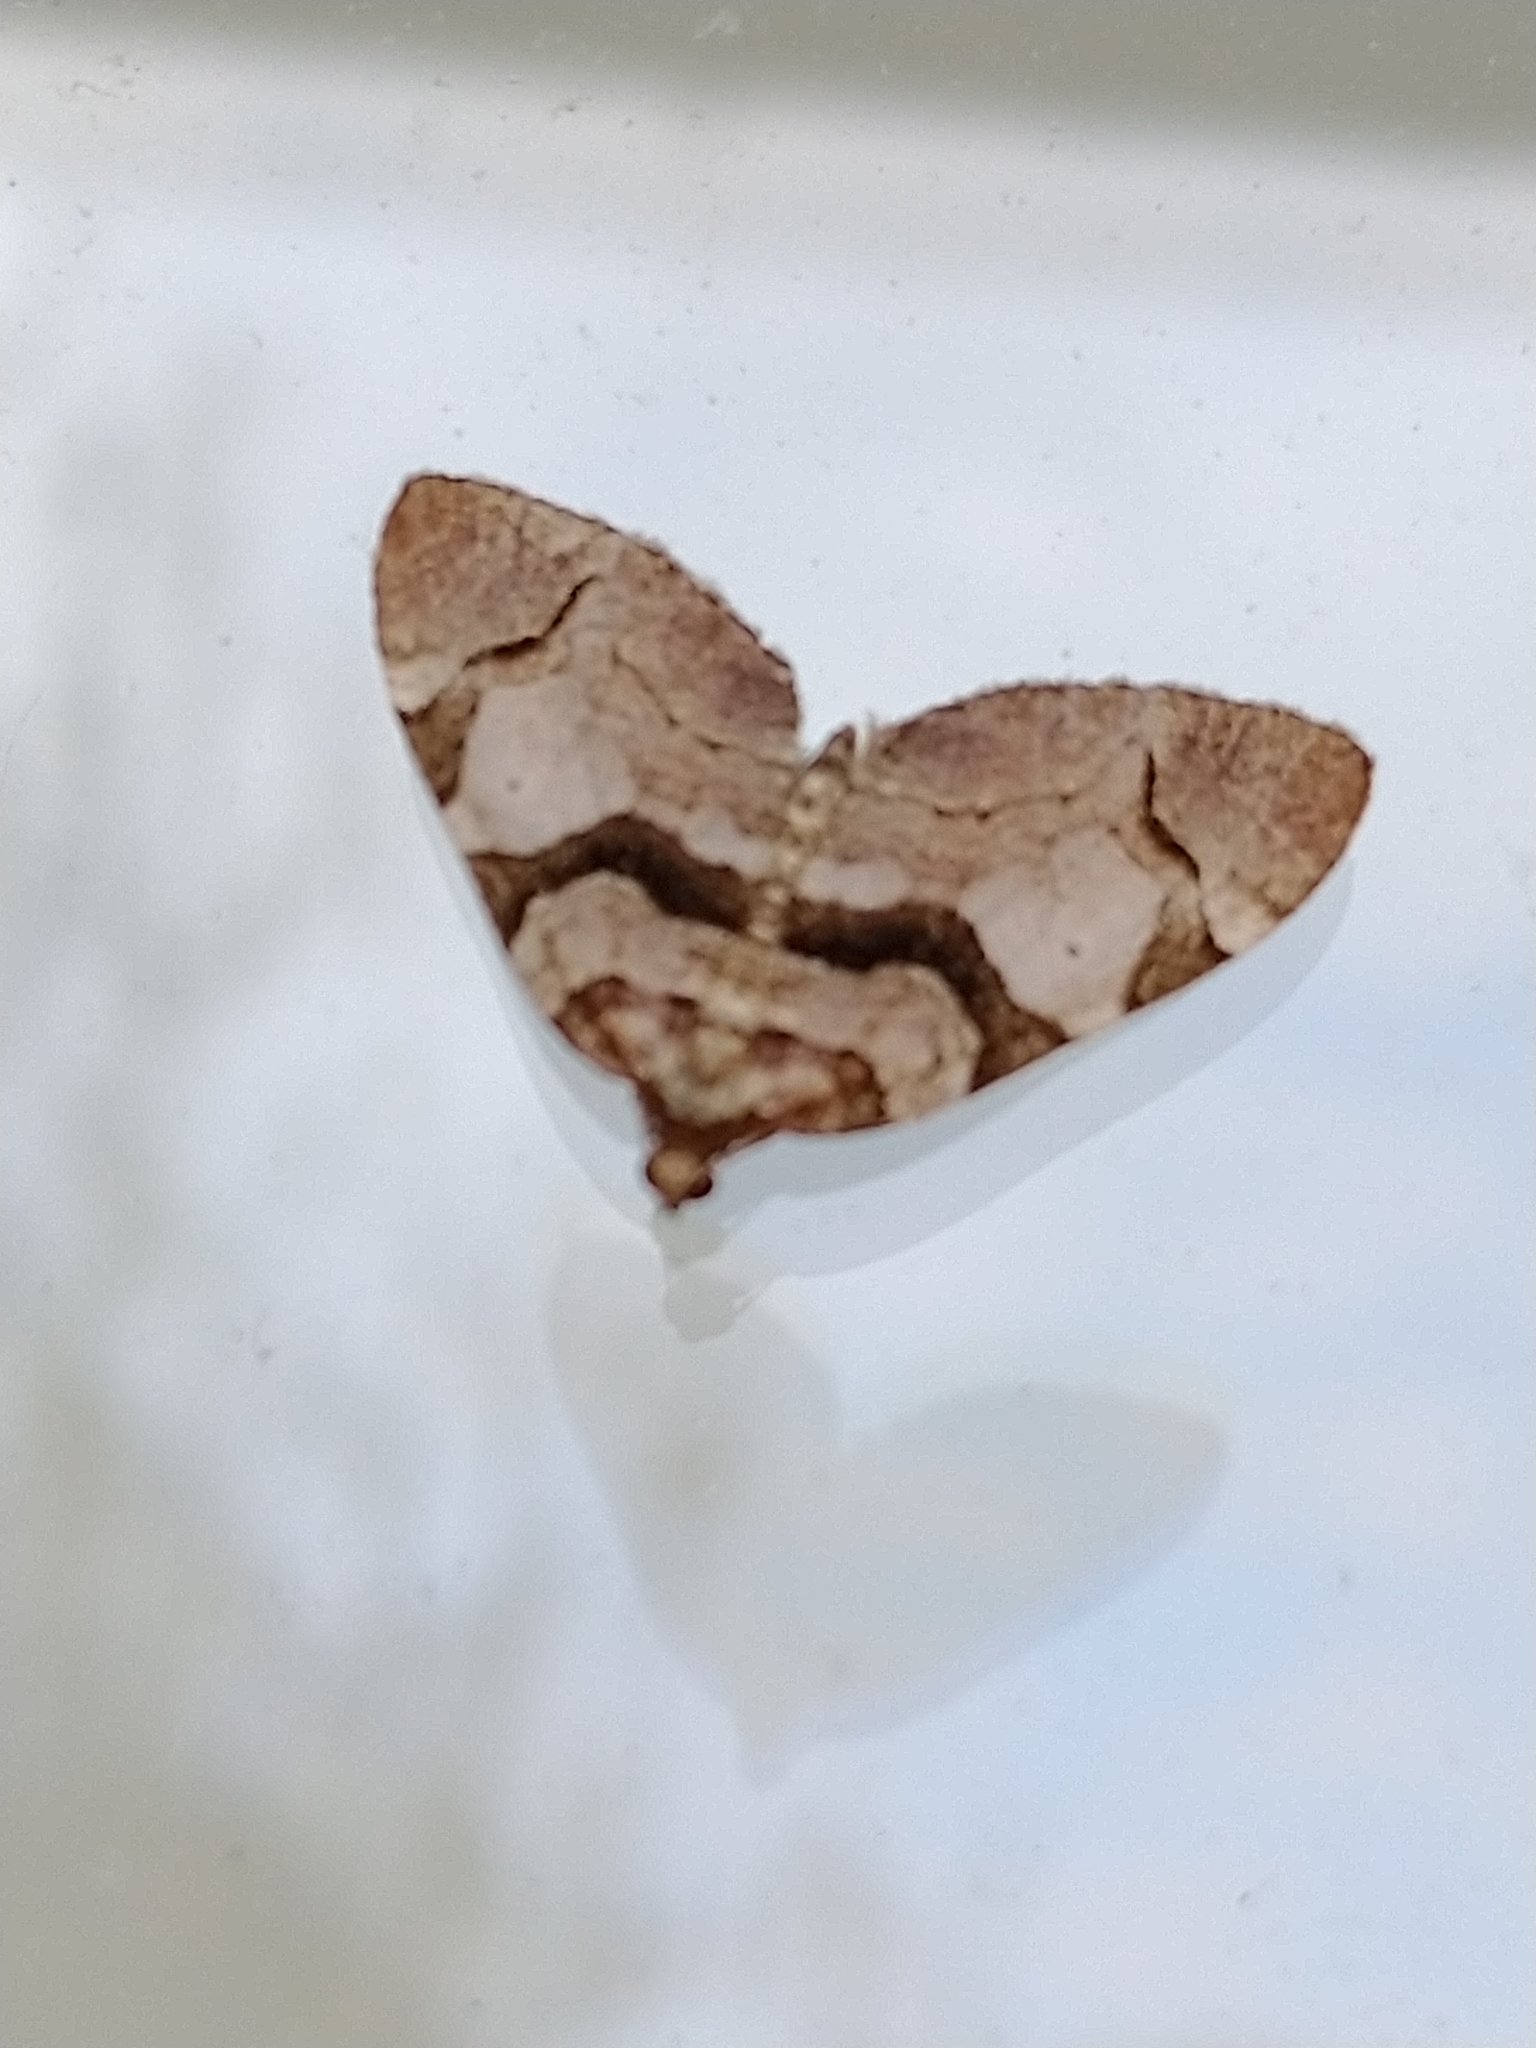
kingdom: Animalia
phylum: Arthropoda
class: Insecta
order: Lepidoptera
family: Geometridae
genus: Anticlea
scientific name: Anticlea derivata
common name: Streamer
